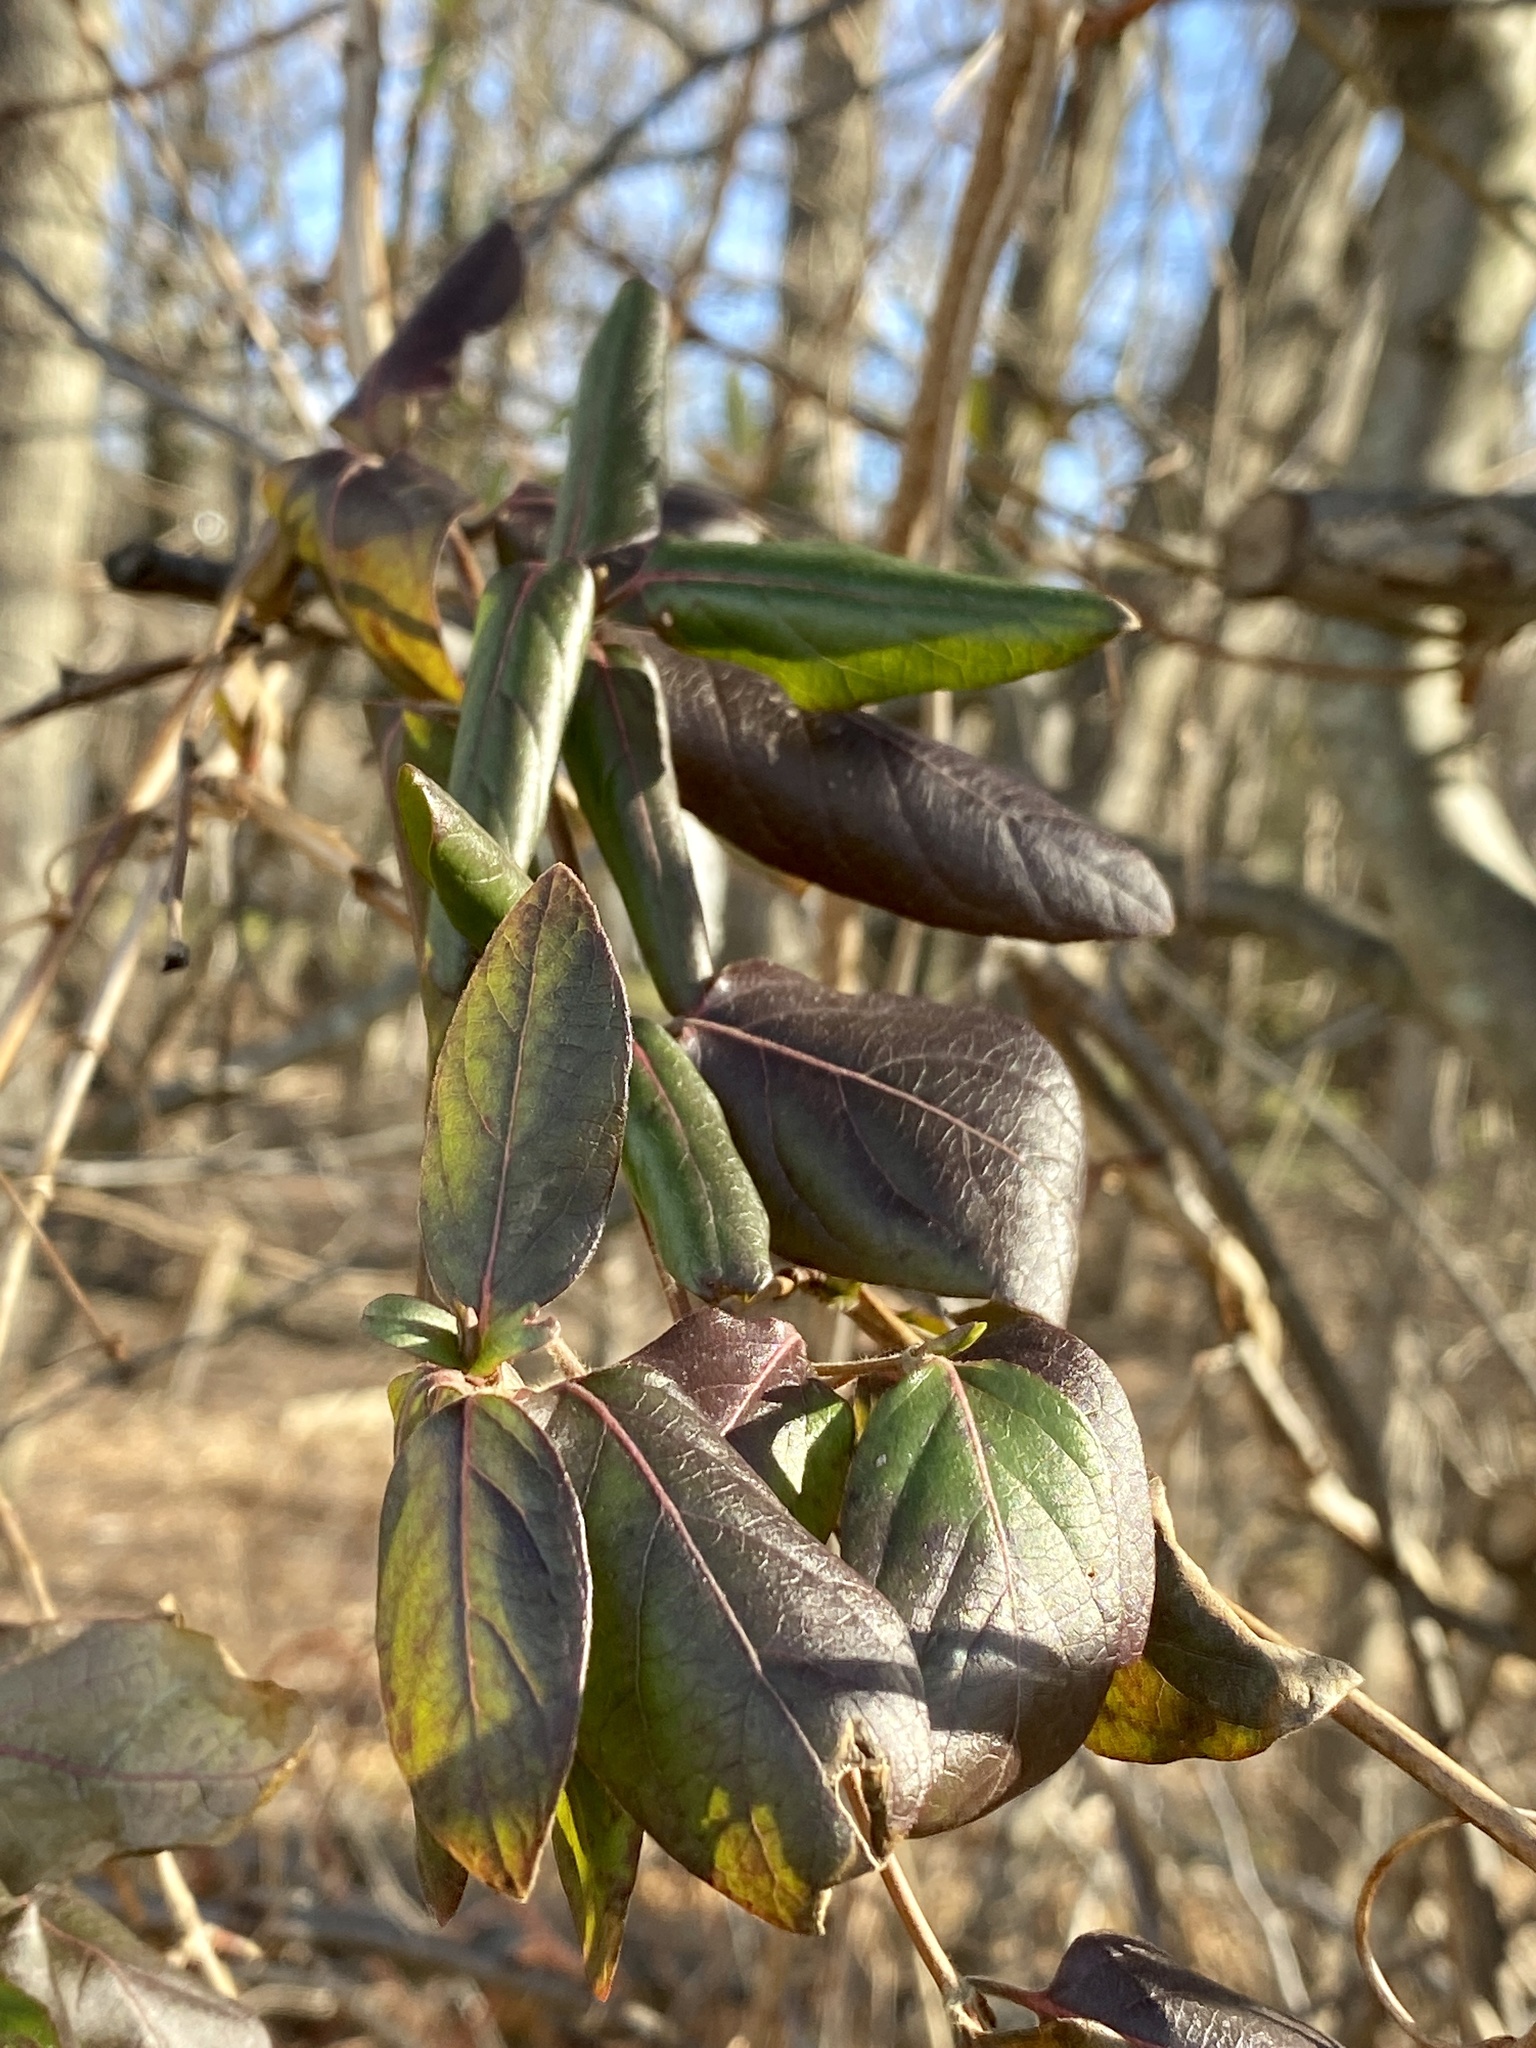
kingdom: Plantae
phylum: Tracheophyta
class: Magnoliopsida
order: Dipsacales
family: Caprifoliaceae
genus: Lonicera
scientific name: Lonicera japonica
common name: Japanese honeysuckle
